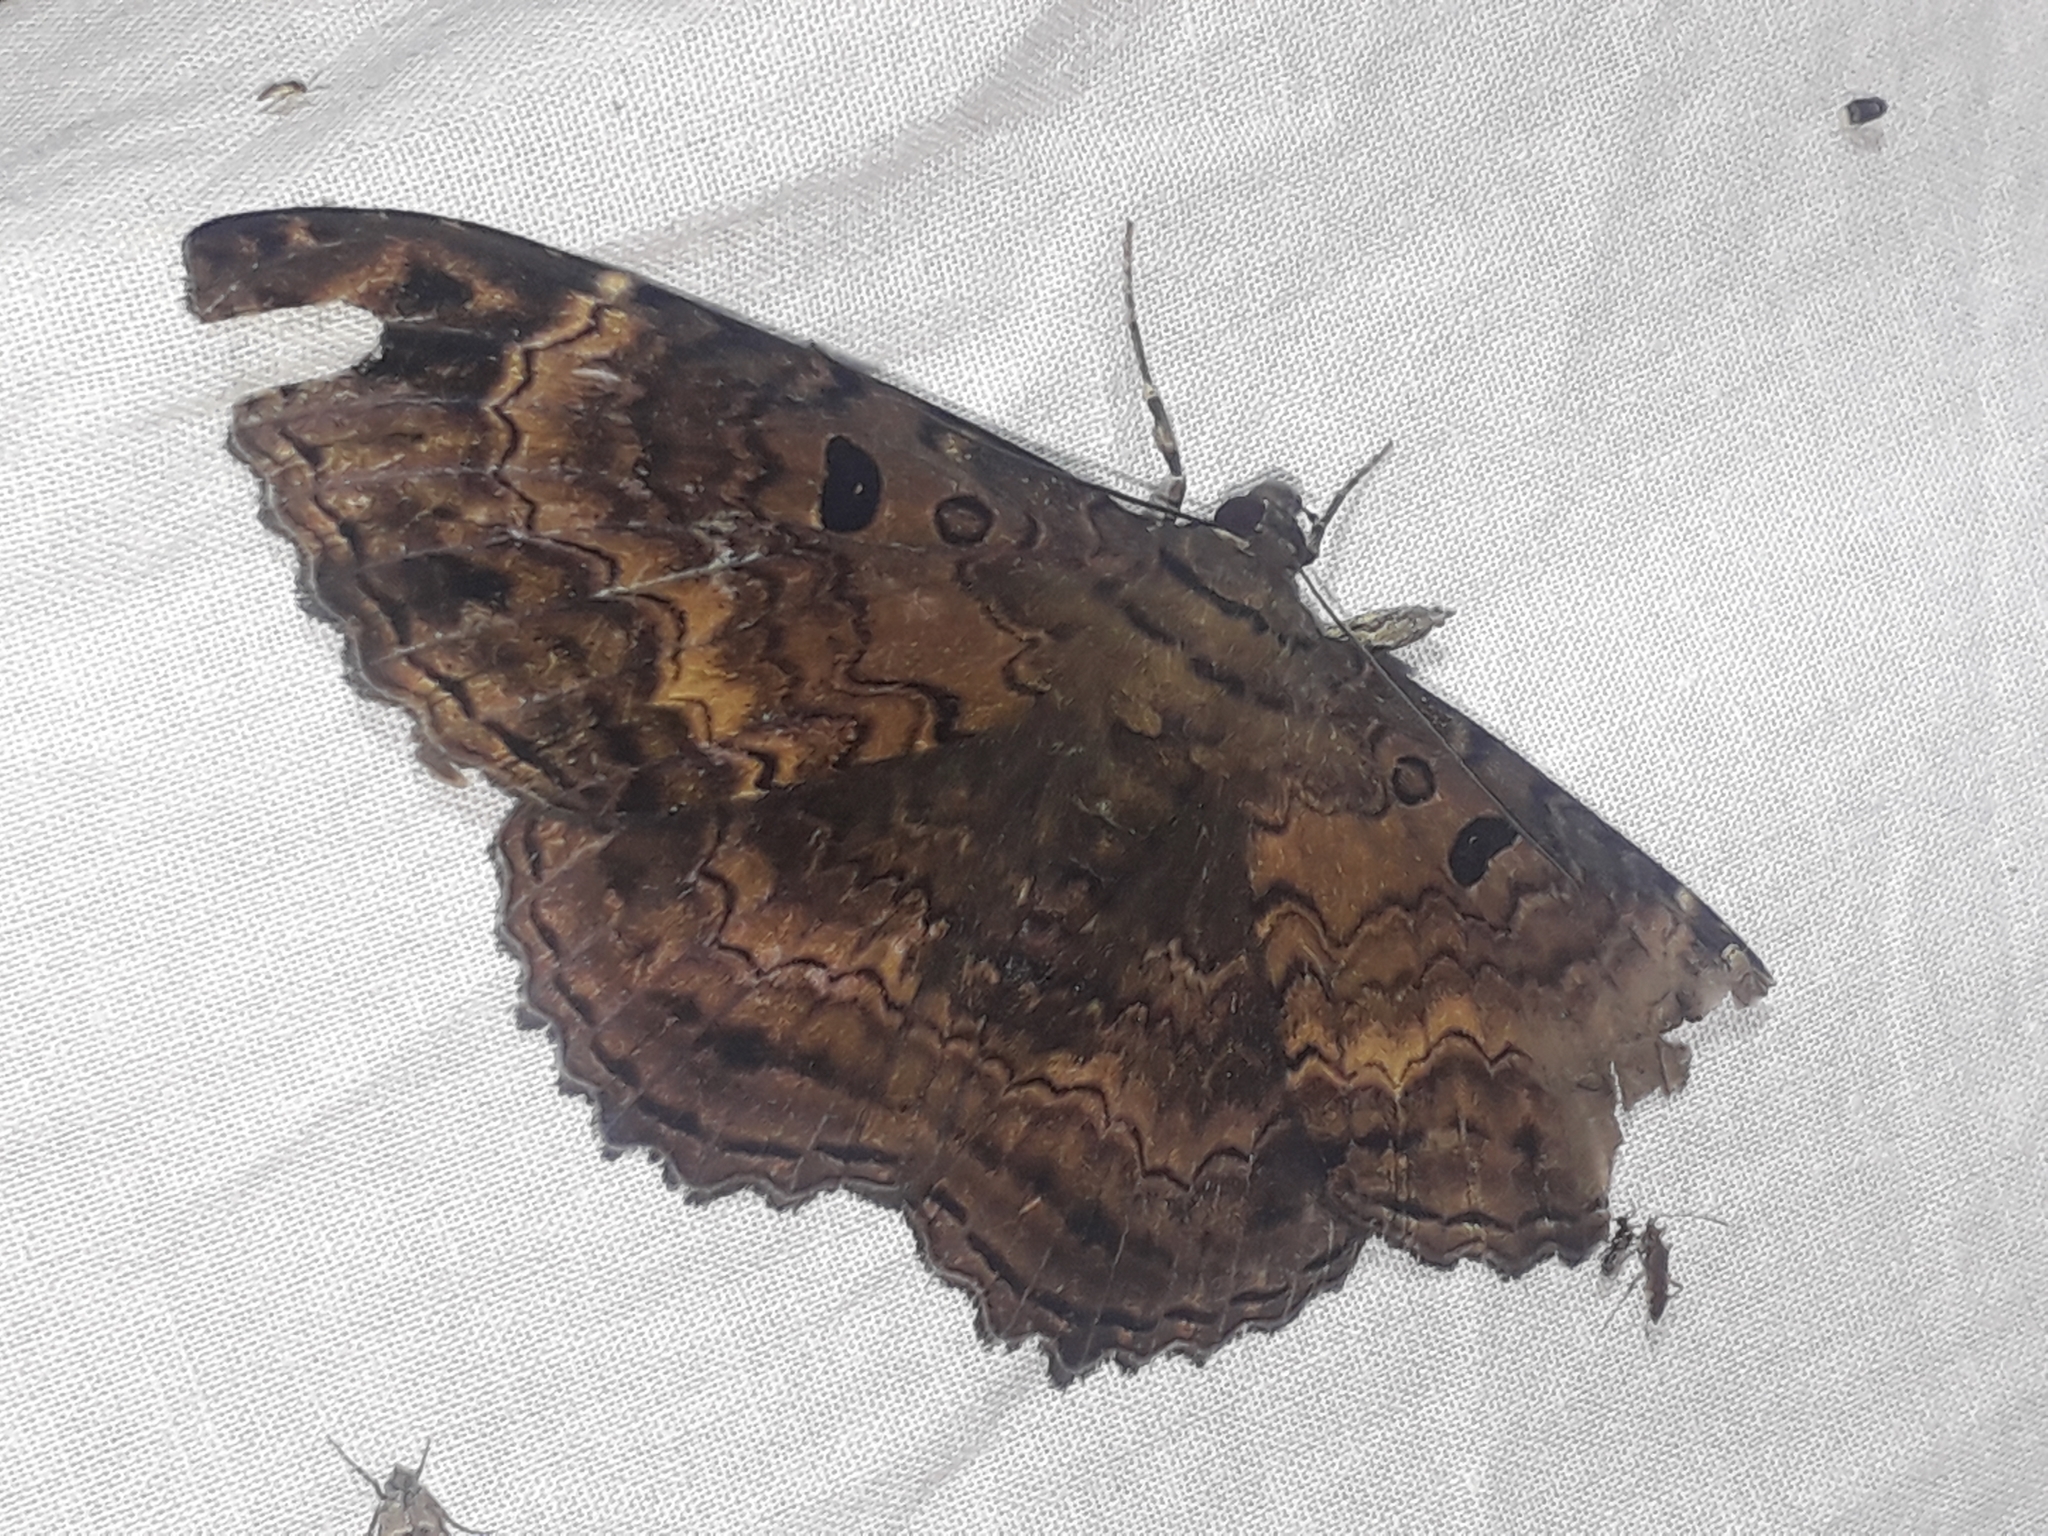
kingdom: Animalia
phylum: Arthropoda
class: Insecta
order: Lepidoptera
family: Erebidae
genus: Feigeria
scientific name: Feigeria
